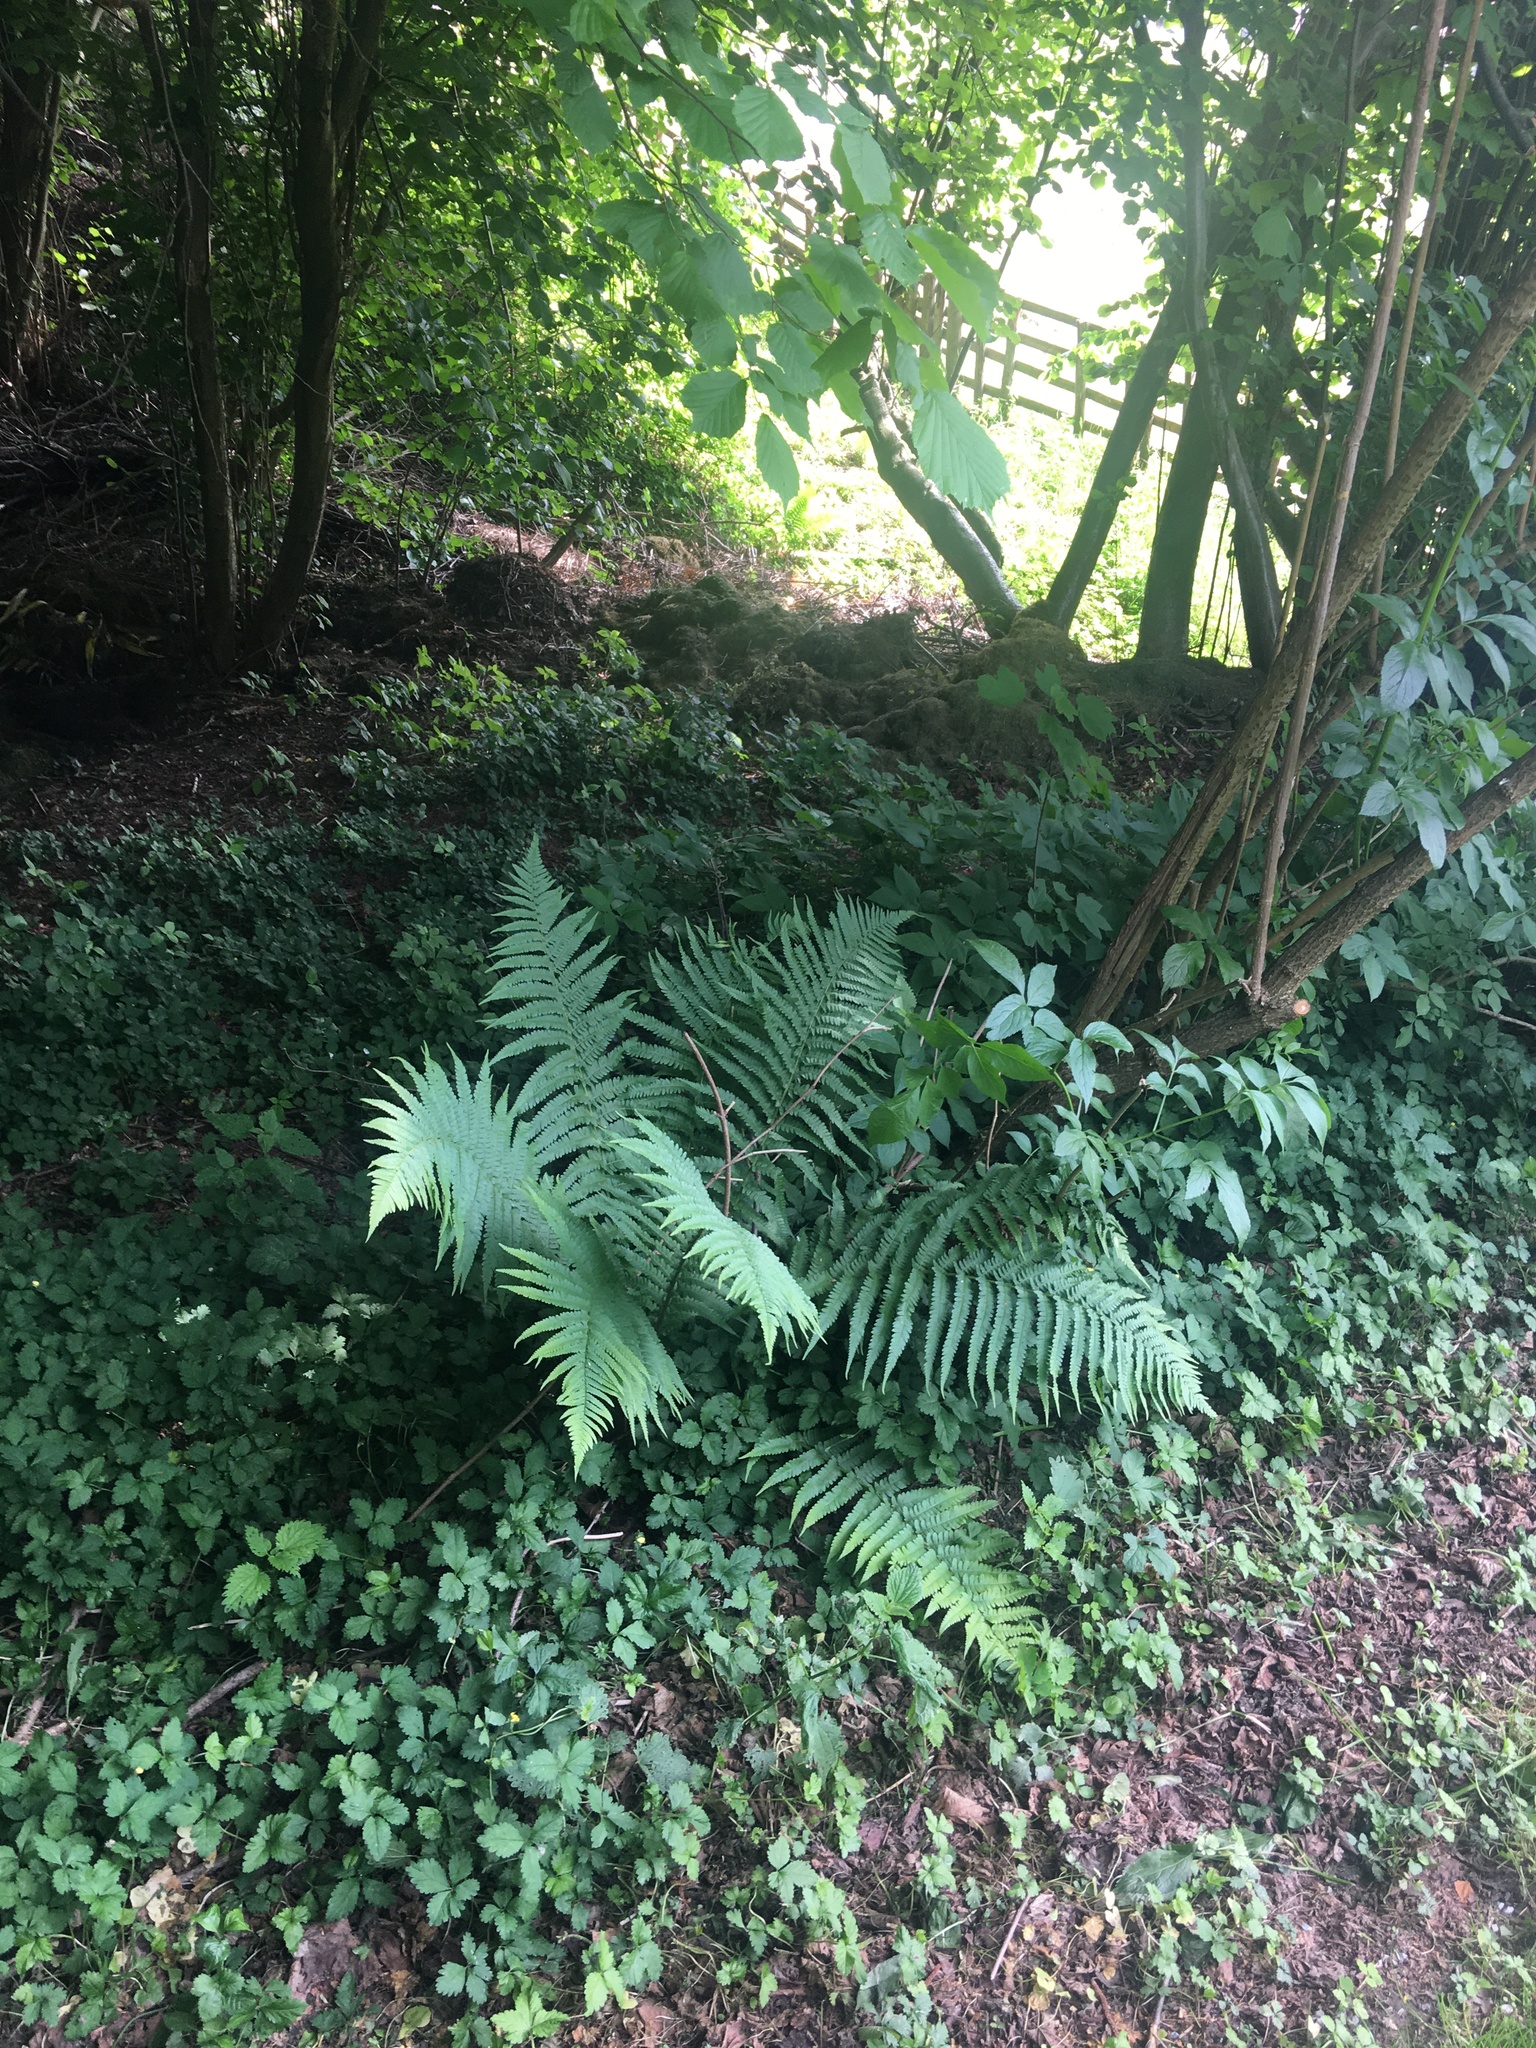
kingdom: Plantae
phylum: Tracheophyta
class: Polypodiopsida
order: Polypodiales
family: Dryopteridaceae
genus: Dryopteris
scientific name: Dryopteris filix-mas
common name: Male fern
